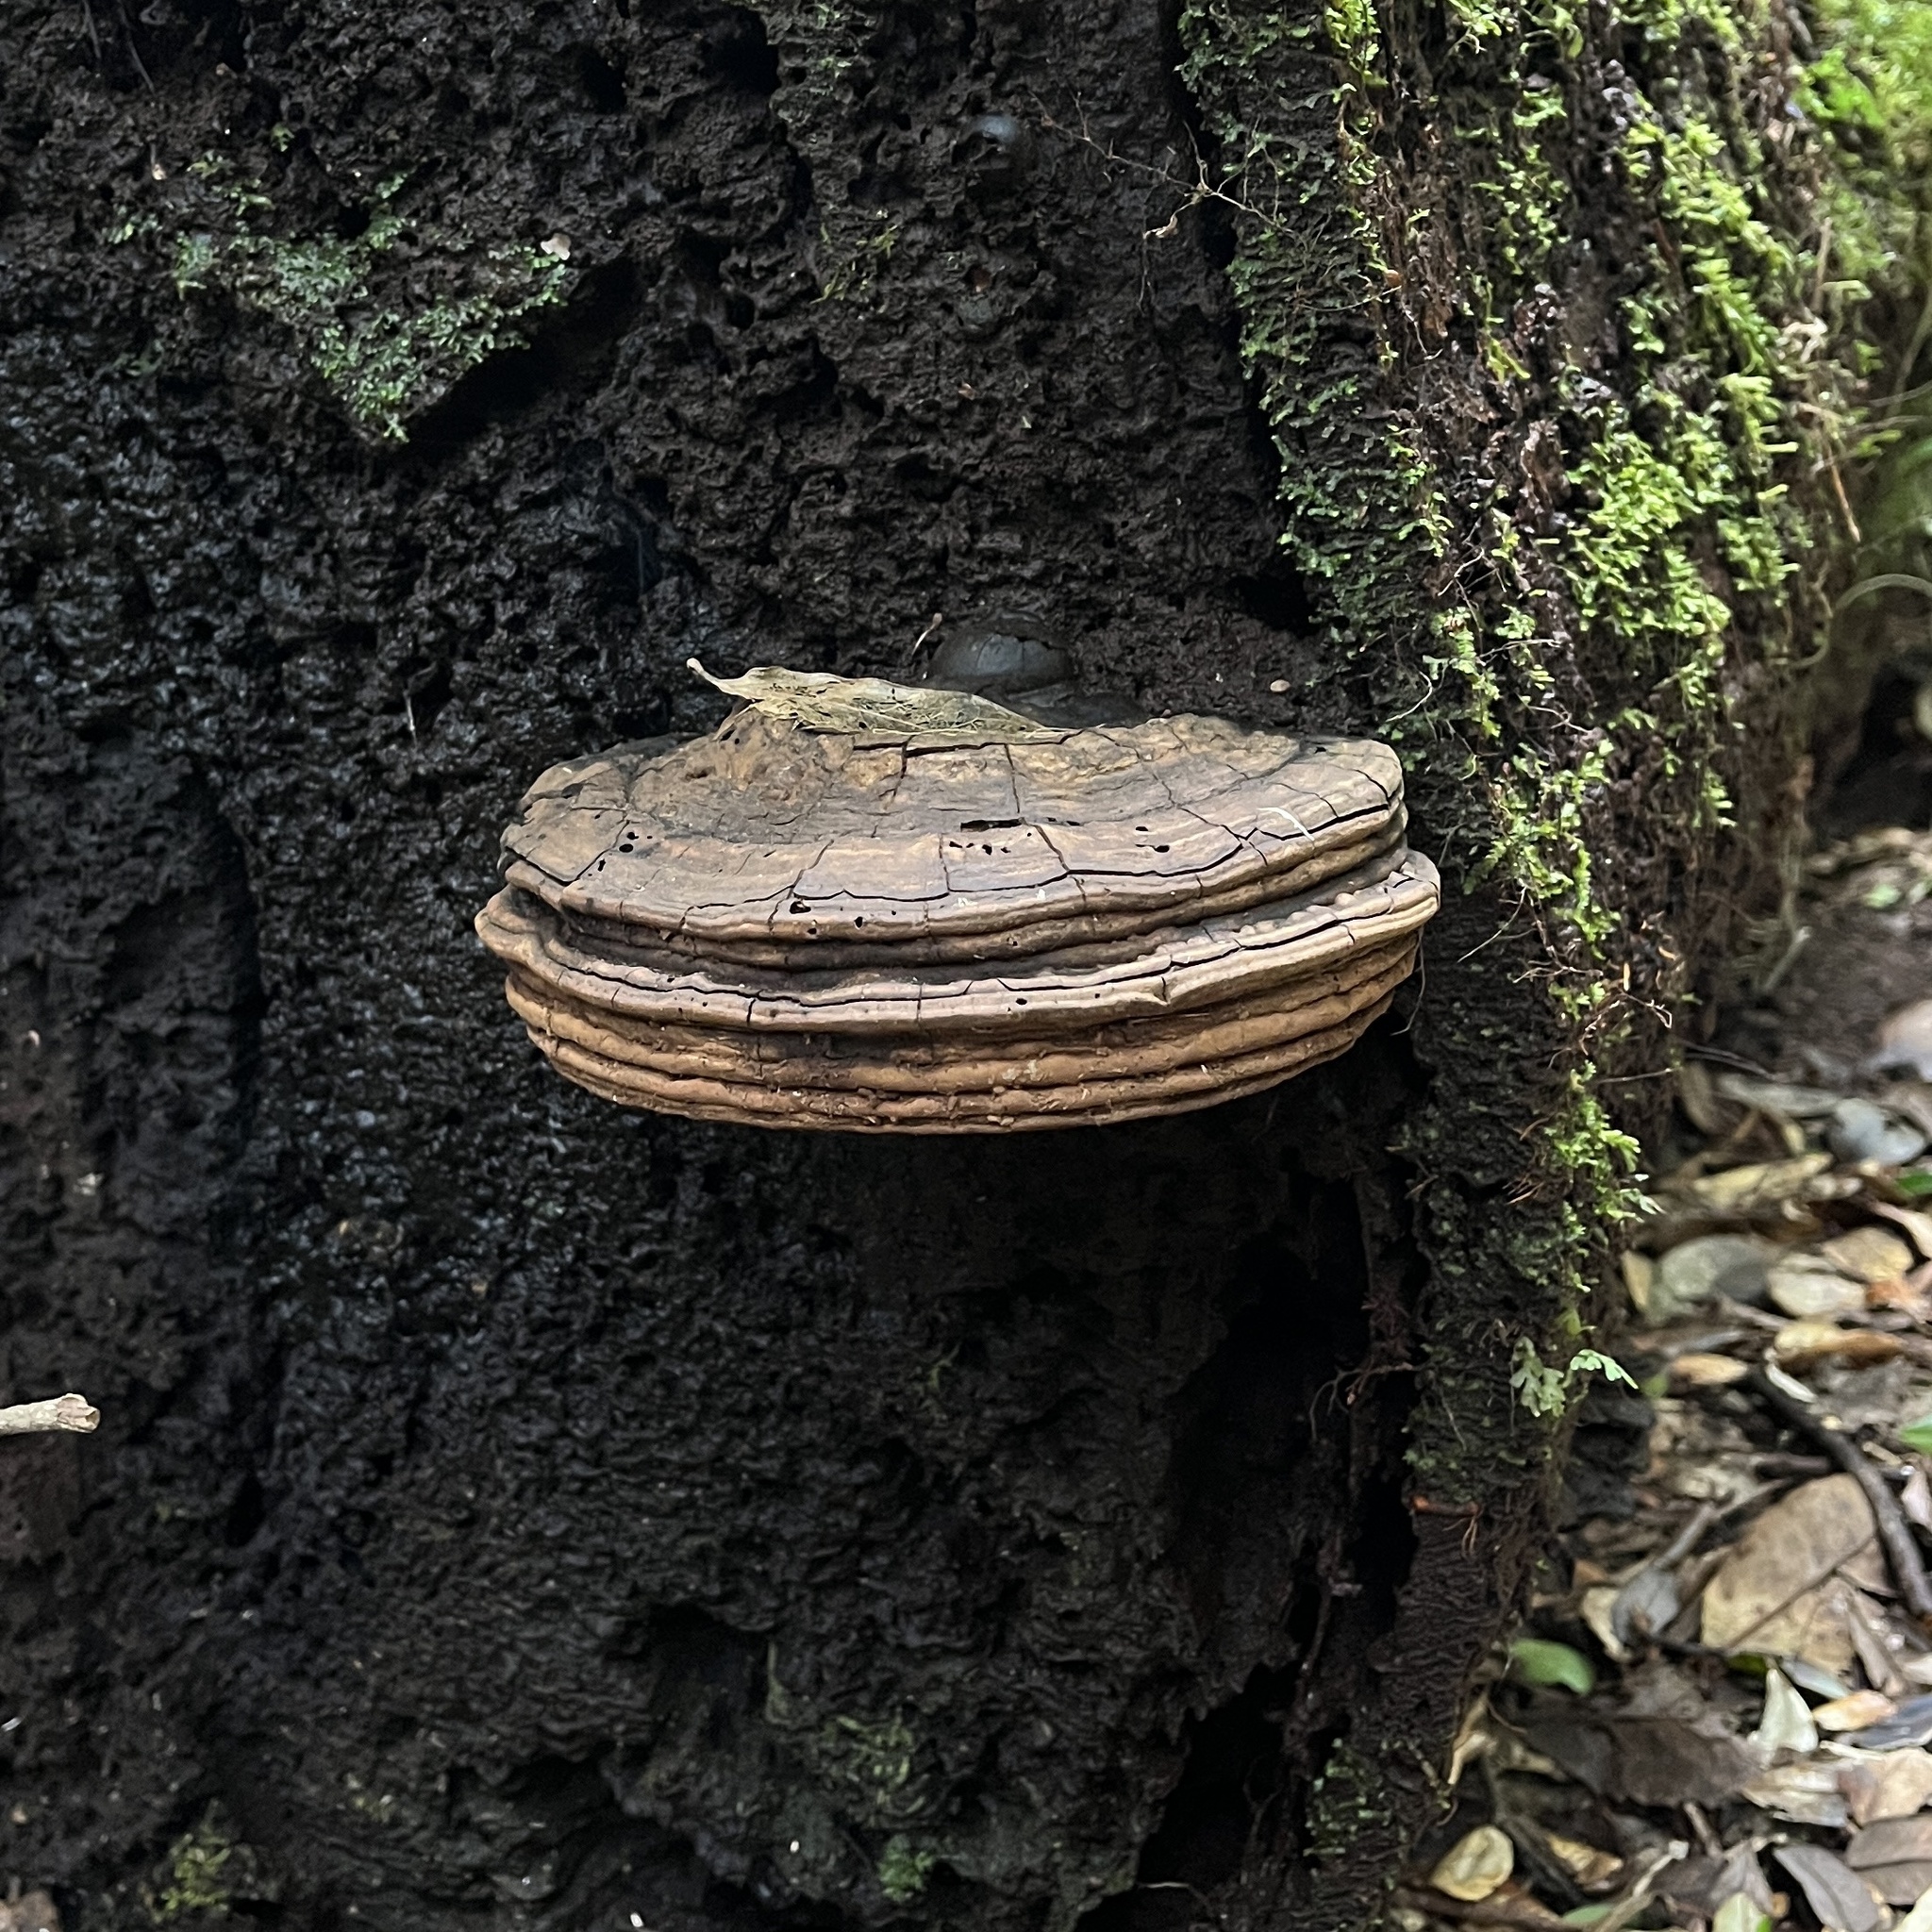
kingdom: Fungi
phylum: Basidiomycota
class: Agaricomycetes
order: Polyporales
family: Polyporaceae
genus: Ganoderma
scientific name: Ganoderma australe
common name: Southern bracket
